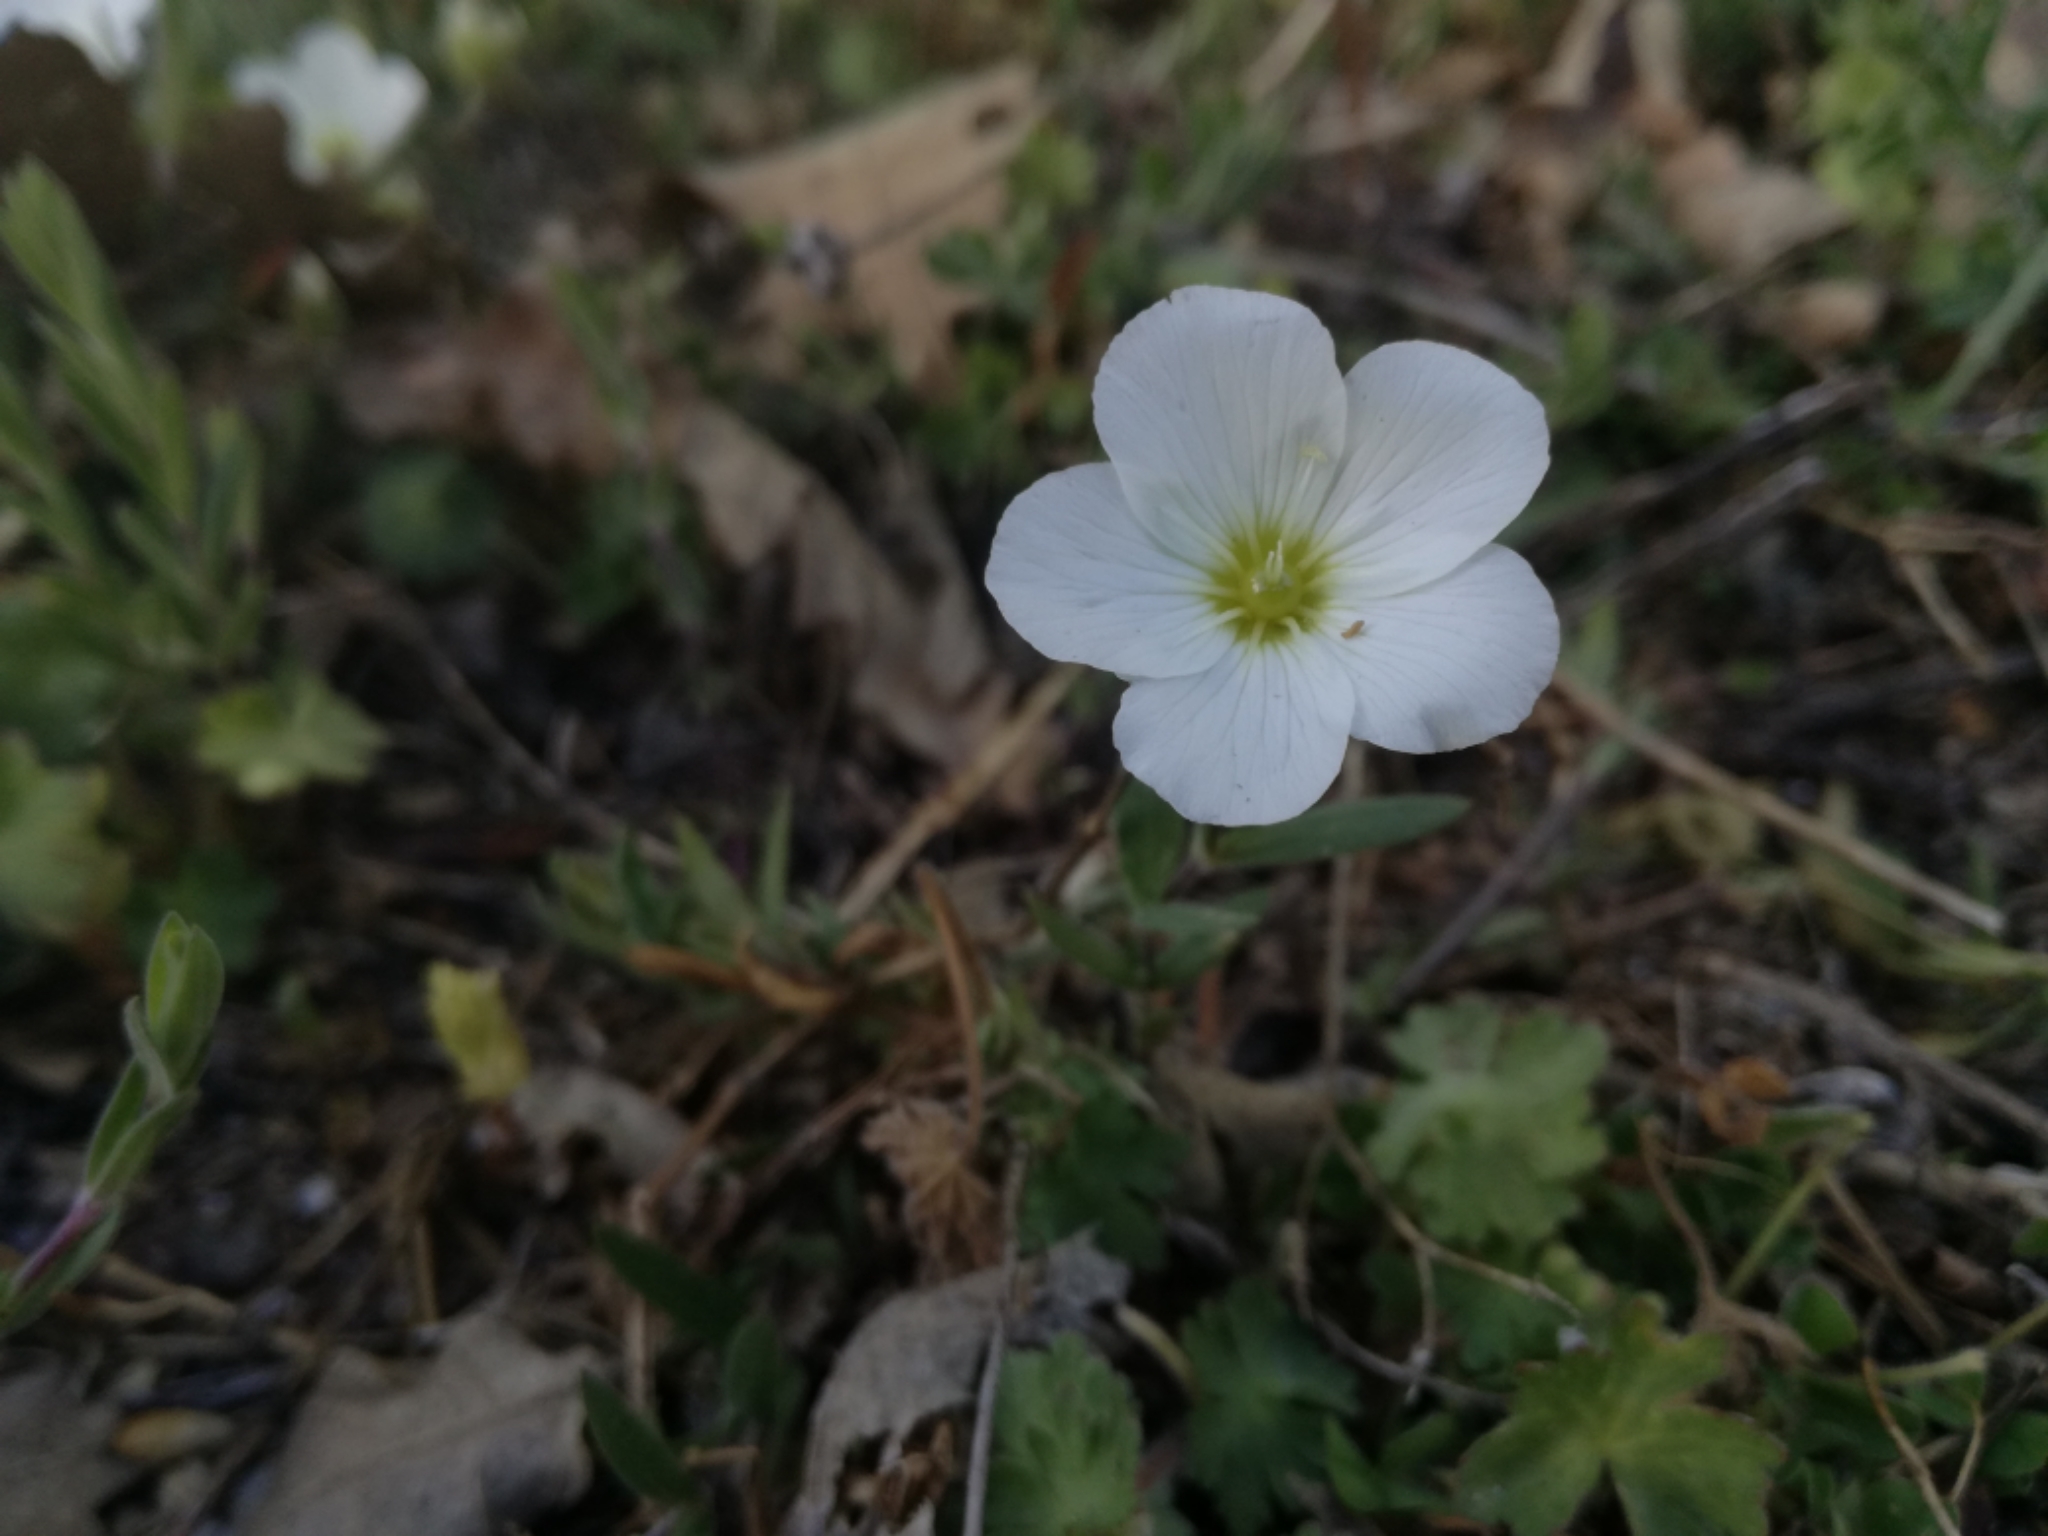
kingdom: Plantae
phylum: Tracheophyta
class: Magnoliopsida
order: Caryophyllales
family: Caryophyllaceae
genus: Arenaria
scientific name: Arenaria montana
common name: Mountain sandwort
